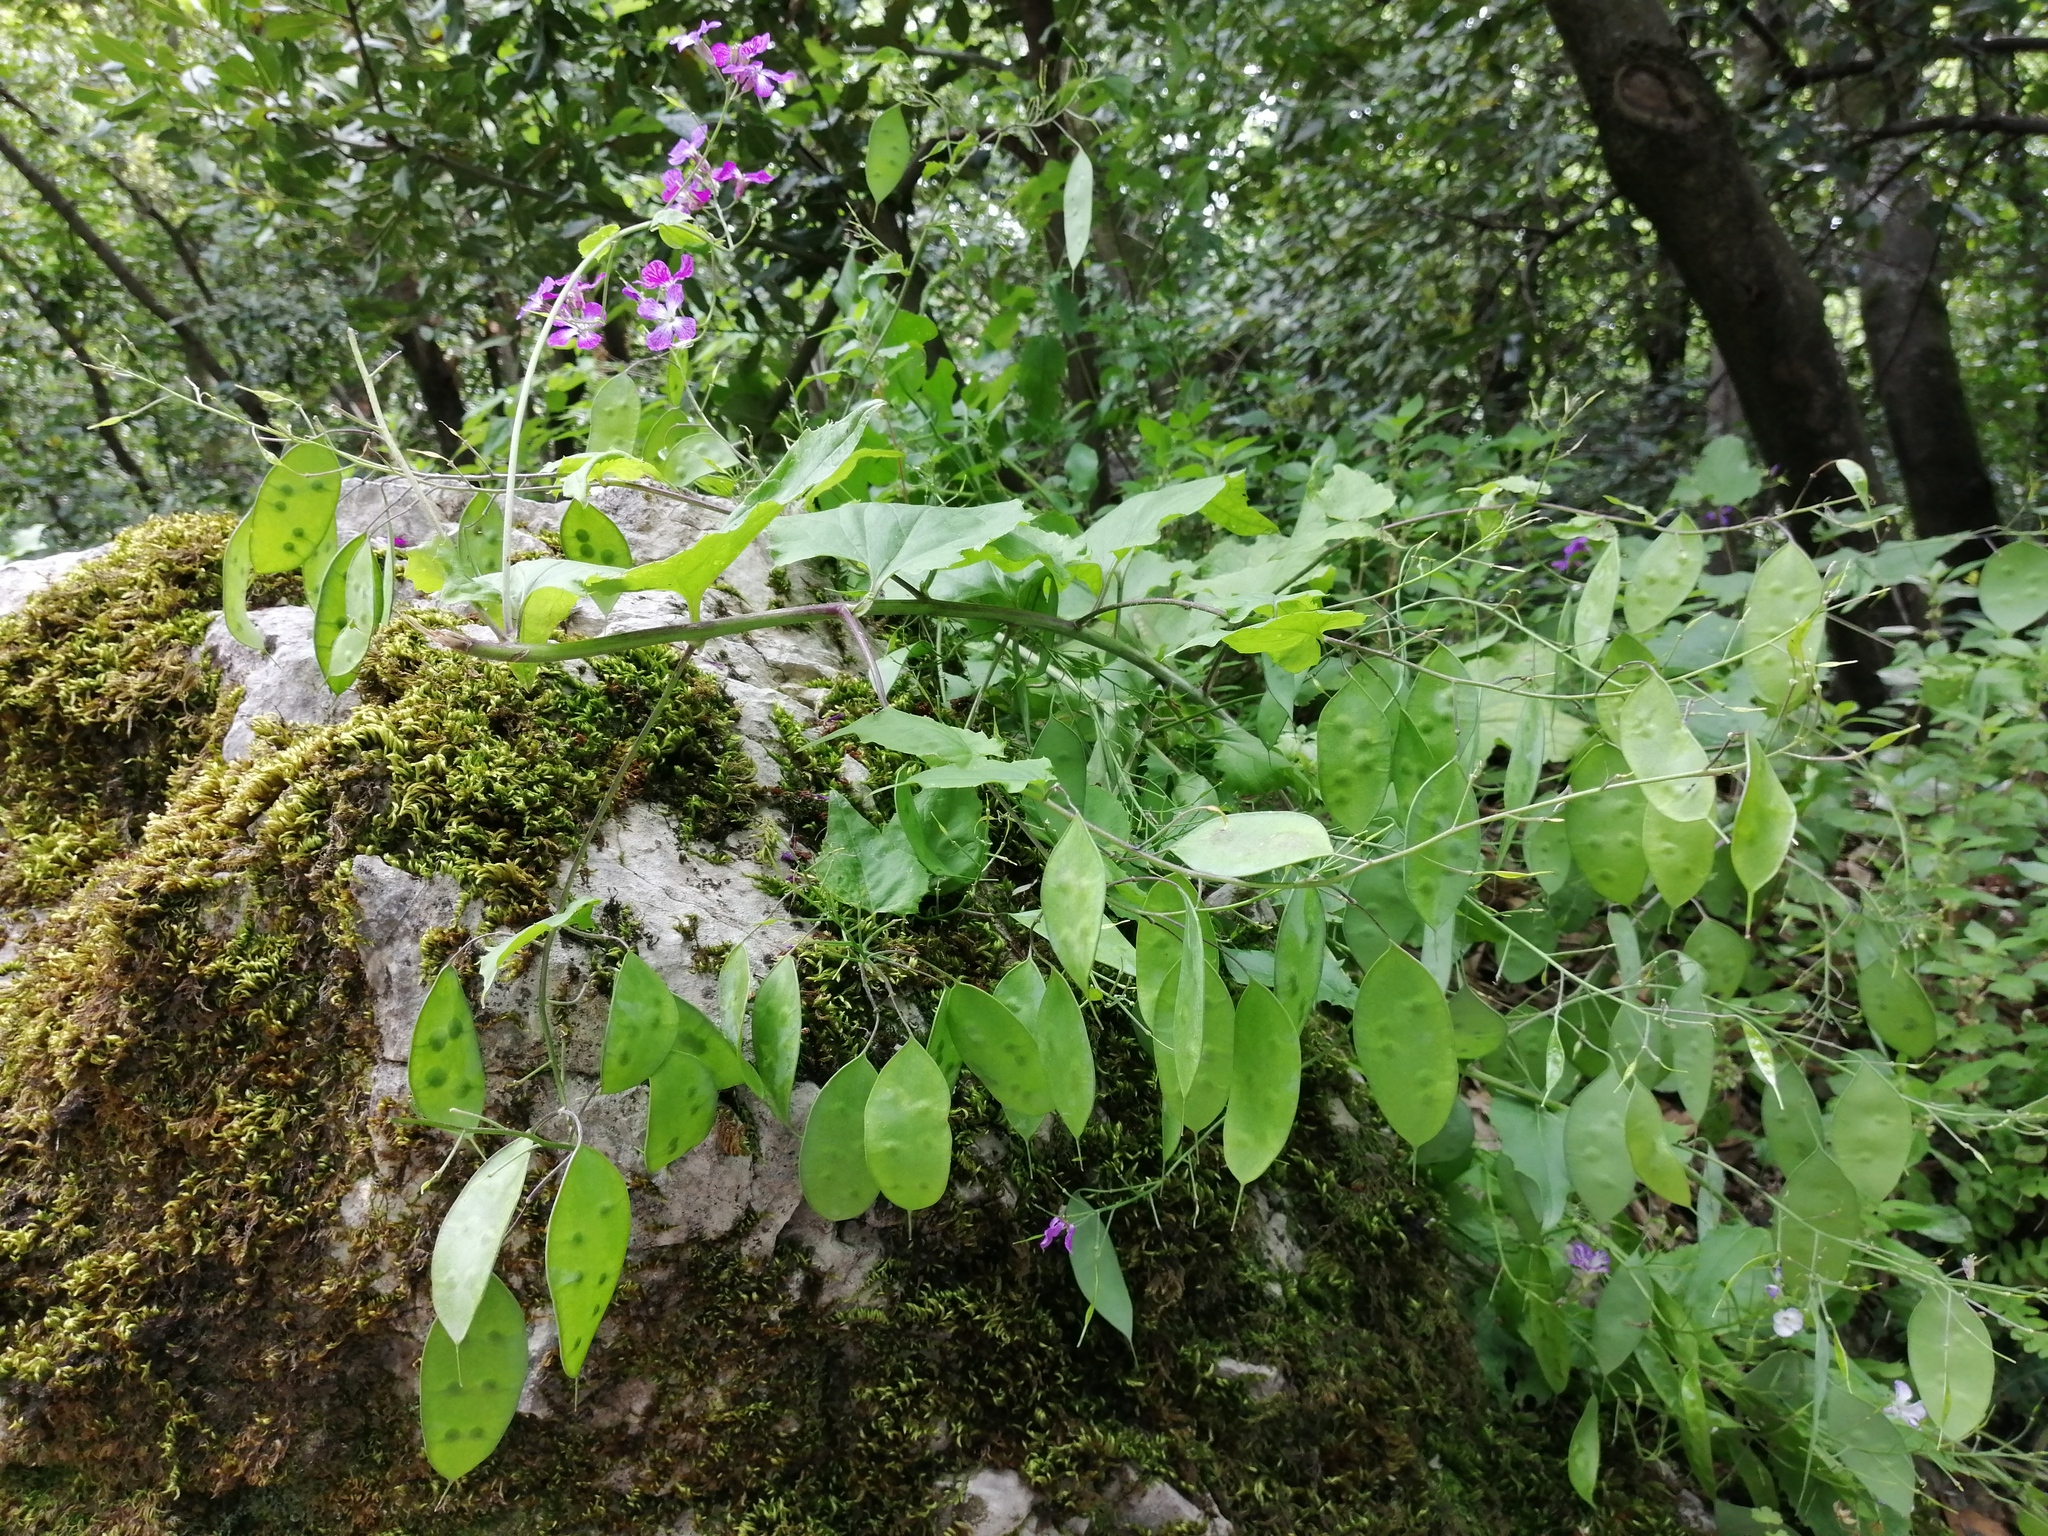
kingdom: Plantae
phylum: Tracheophyta
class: Magnoliopsida
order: Brassicales
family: Brassicaceae
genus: Lunaria
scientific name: Lunaria rediviva
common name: Perennial honesty
